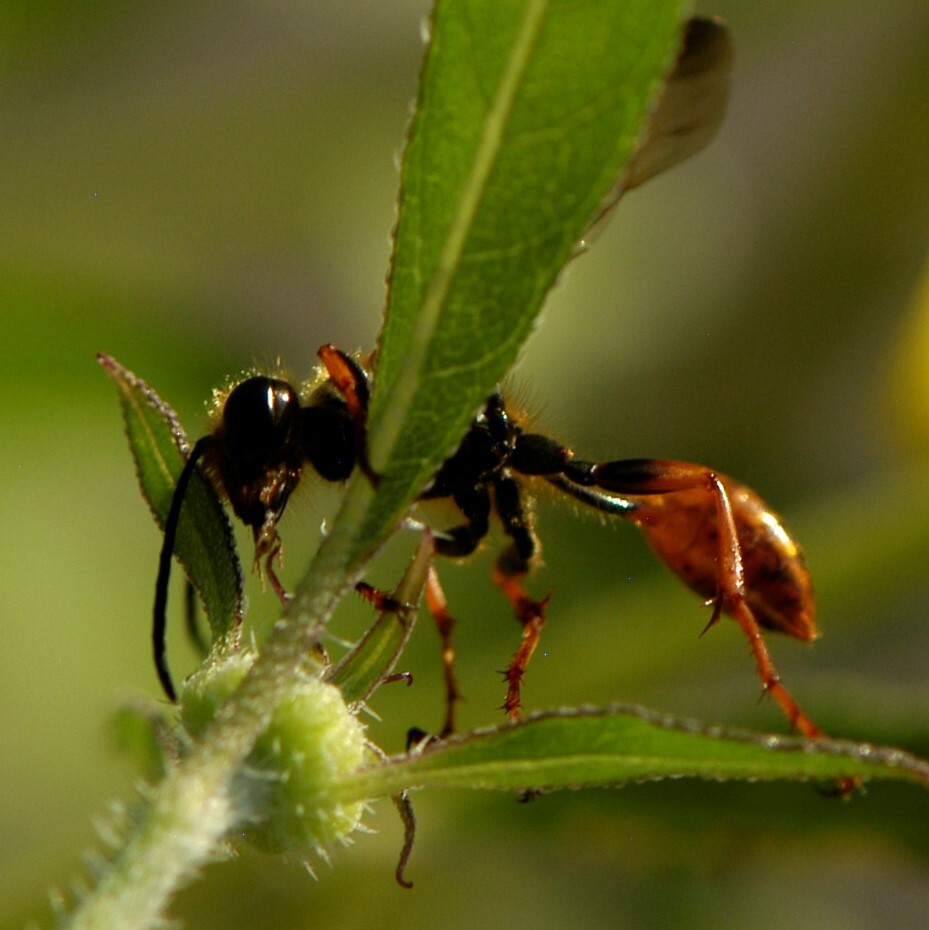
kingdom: Animalia
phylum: Arthropoda
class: Insecta
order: Hymenoptera
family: Sphecidae
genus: Isodontia
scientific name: Isodontia elegans
